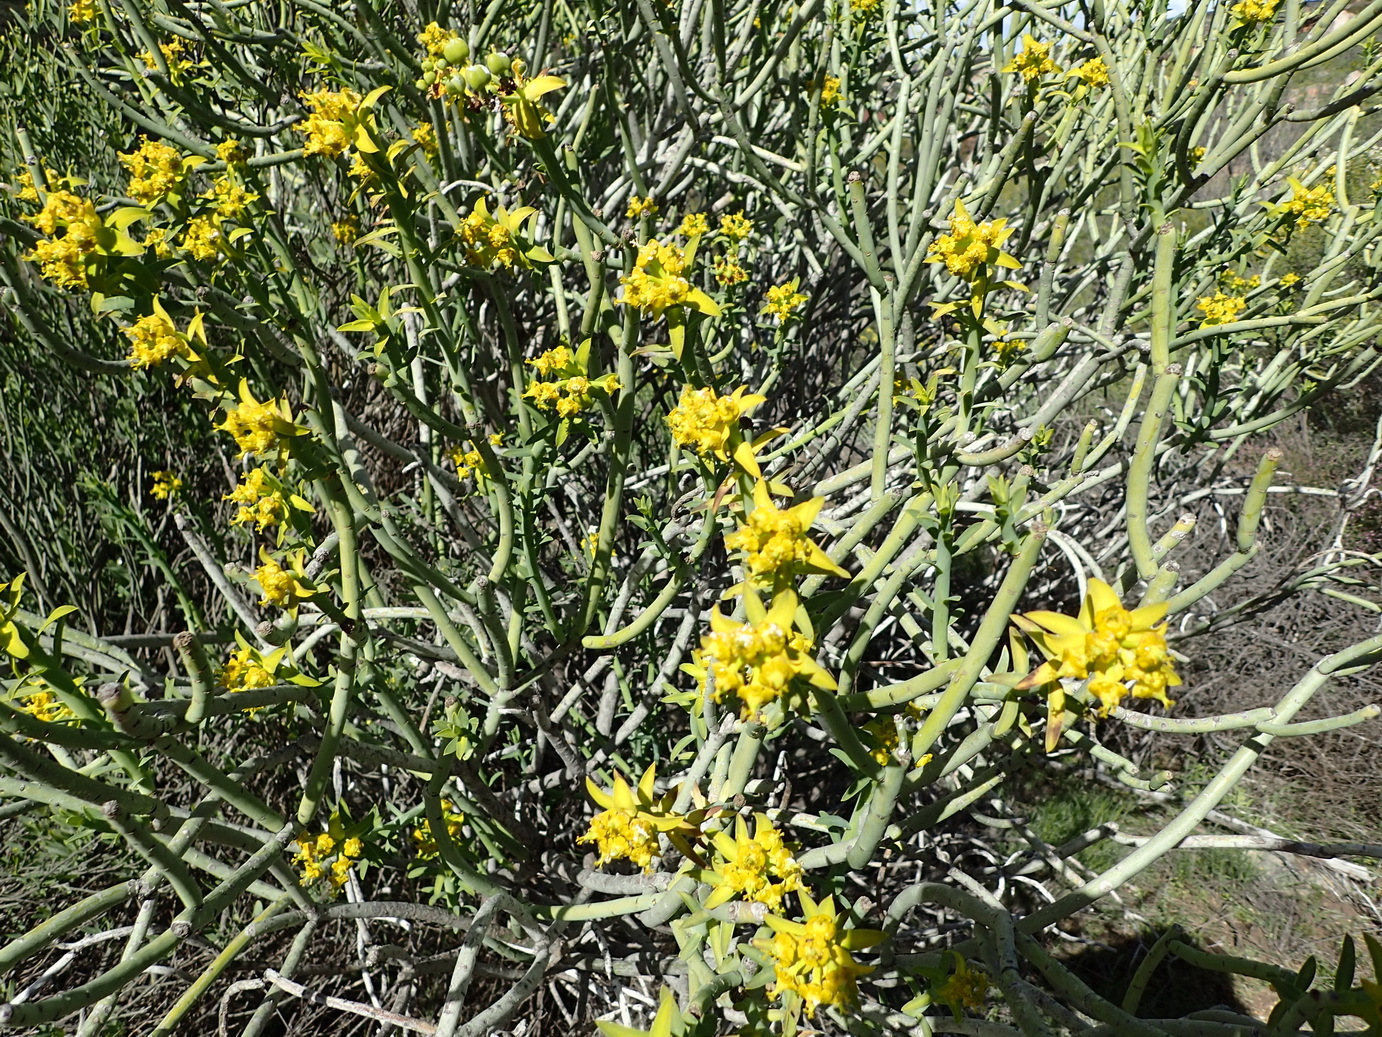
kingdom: Plantae
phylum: Tracheophyta
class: Magnoliopsida
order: Malpighiales
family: Euphorbiaceae
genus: Euphorbia
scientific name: Euphorbia mauritanica
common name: Jackal's-food
